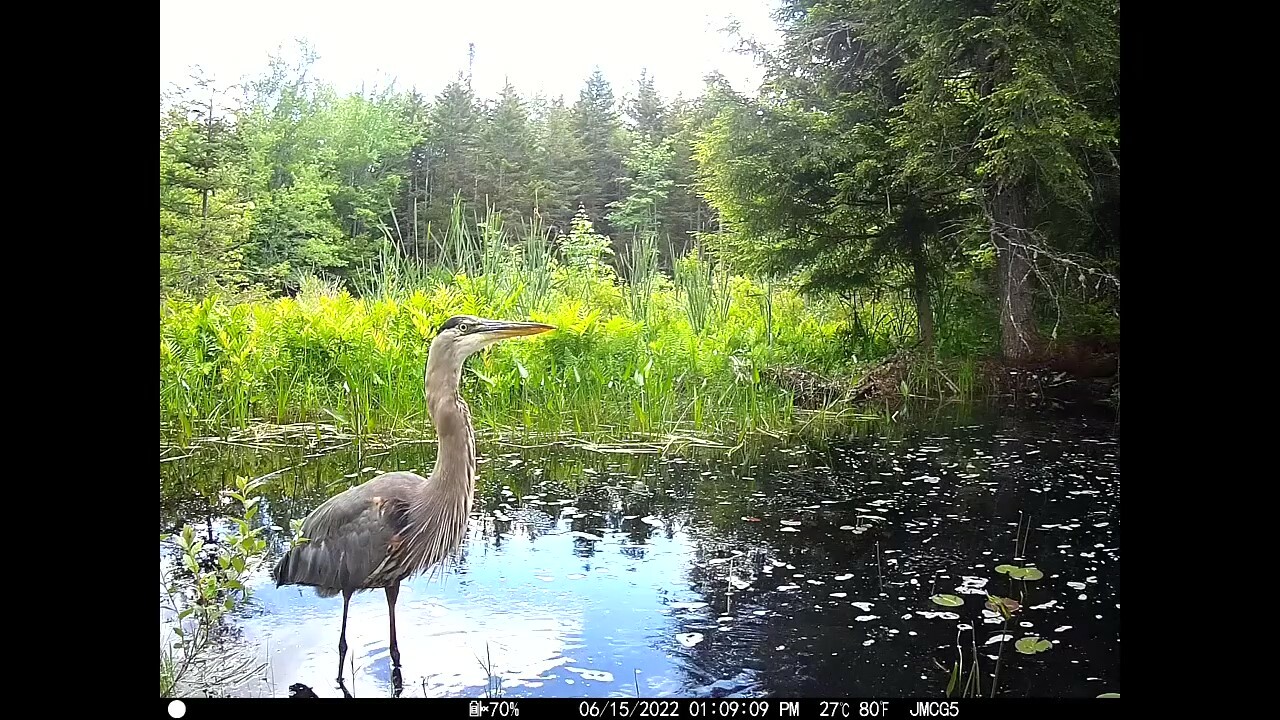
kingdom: Animalia
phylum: Chordata
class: Aves
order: Pelecaniformes
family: Ardeidae
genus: Ardea
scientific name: Ardea herodias
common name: Great blue heron
